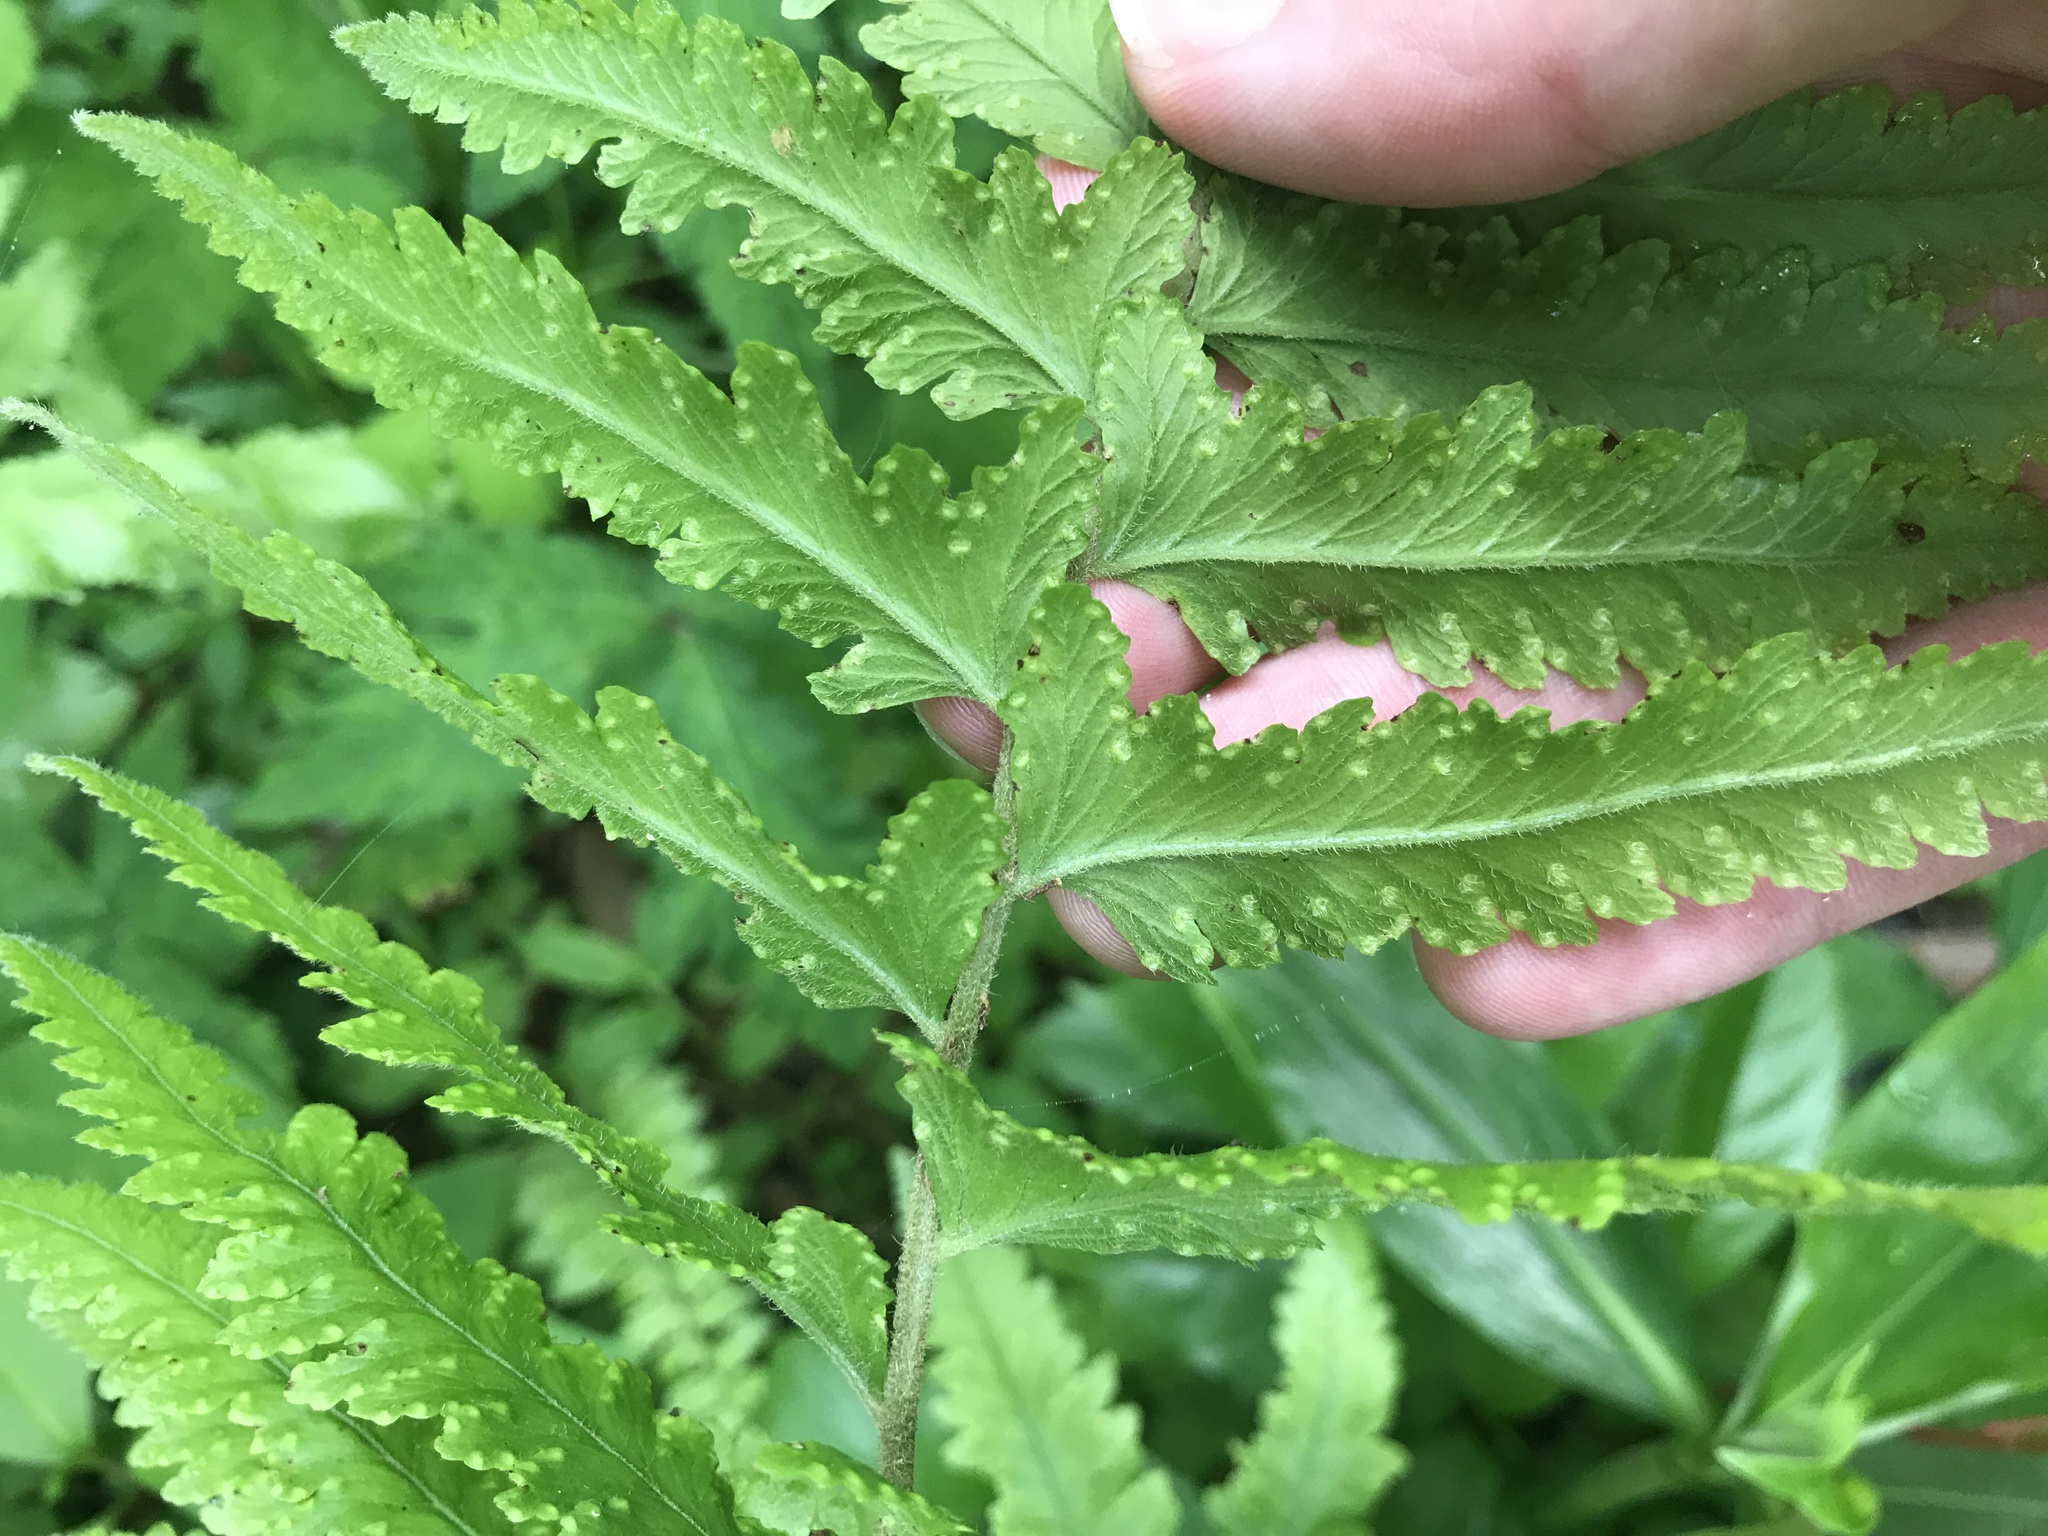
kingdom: Plantae
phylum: Tracheophyta
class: Polypodiopsida
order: Polypodiales
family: Dennstaedtiaceae
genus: Microlepia
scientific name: Microlepia marginata
